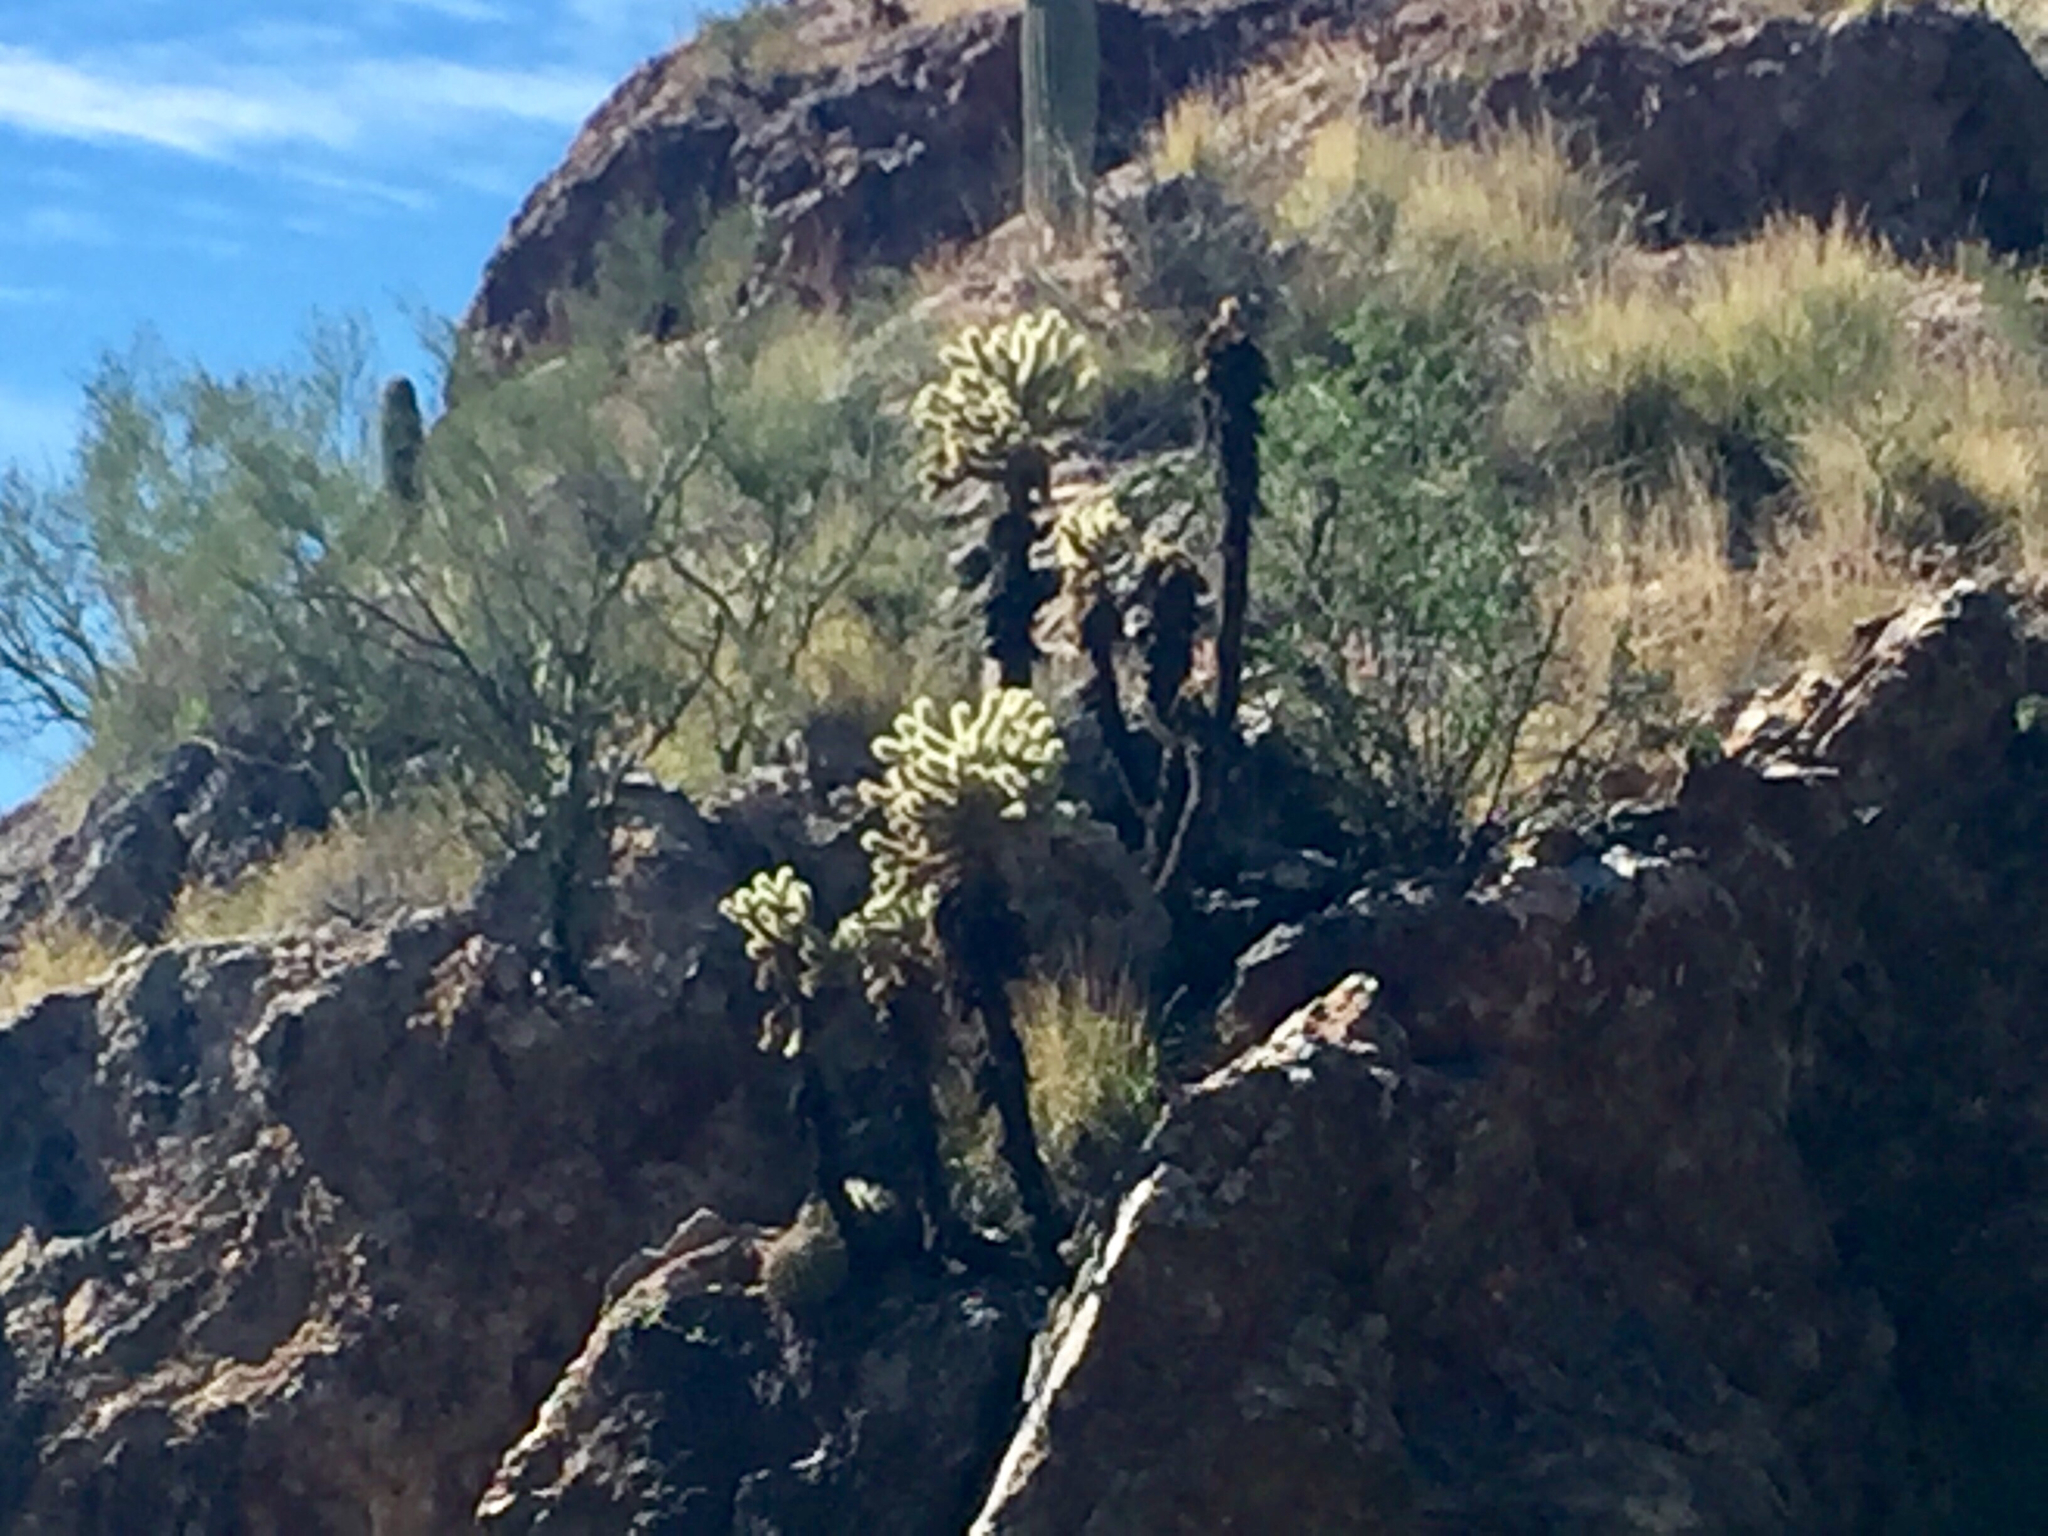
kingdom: Plantae
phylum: Tracheophyta
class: Magnoliopsida
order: Caryophyllales
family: Cactaceae
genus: Cylindropuntia
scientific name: Cylindropuntia fosbergii
